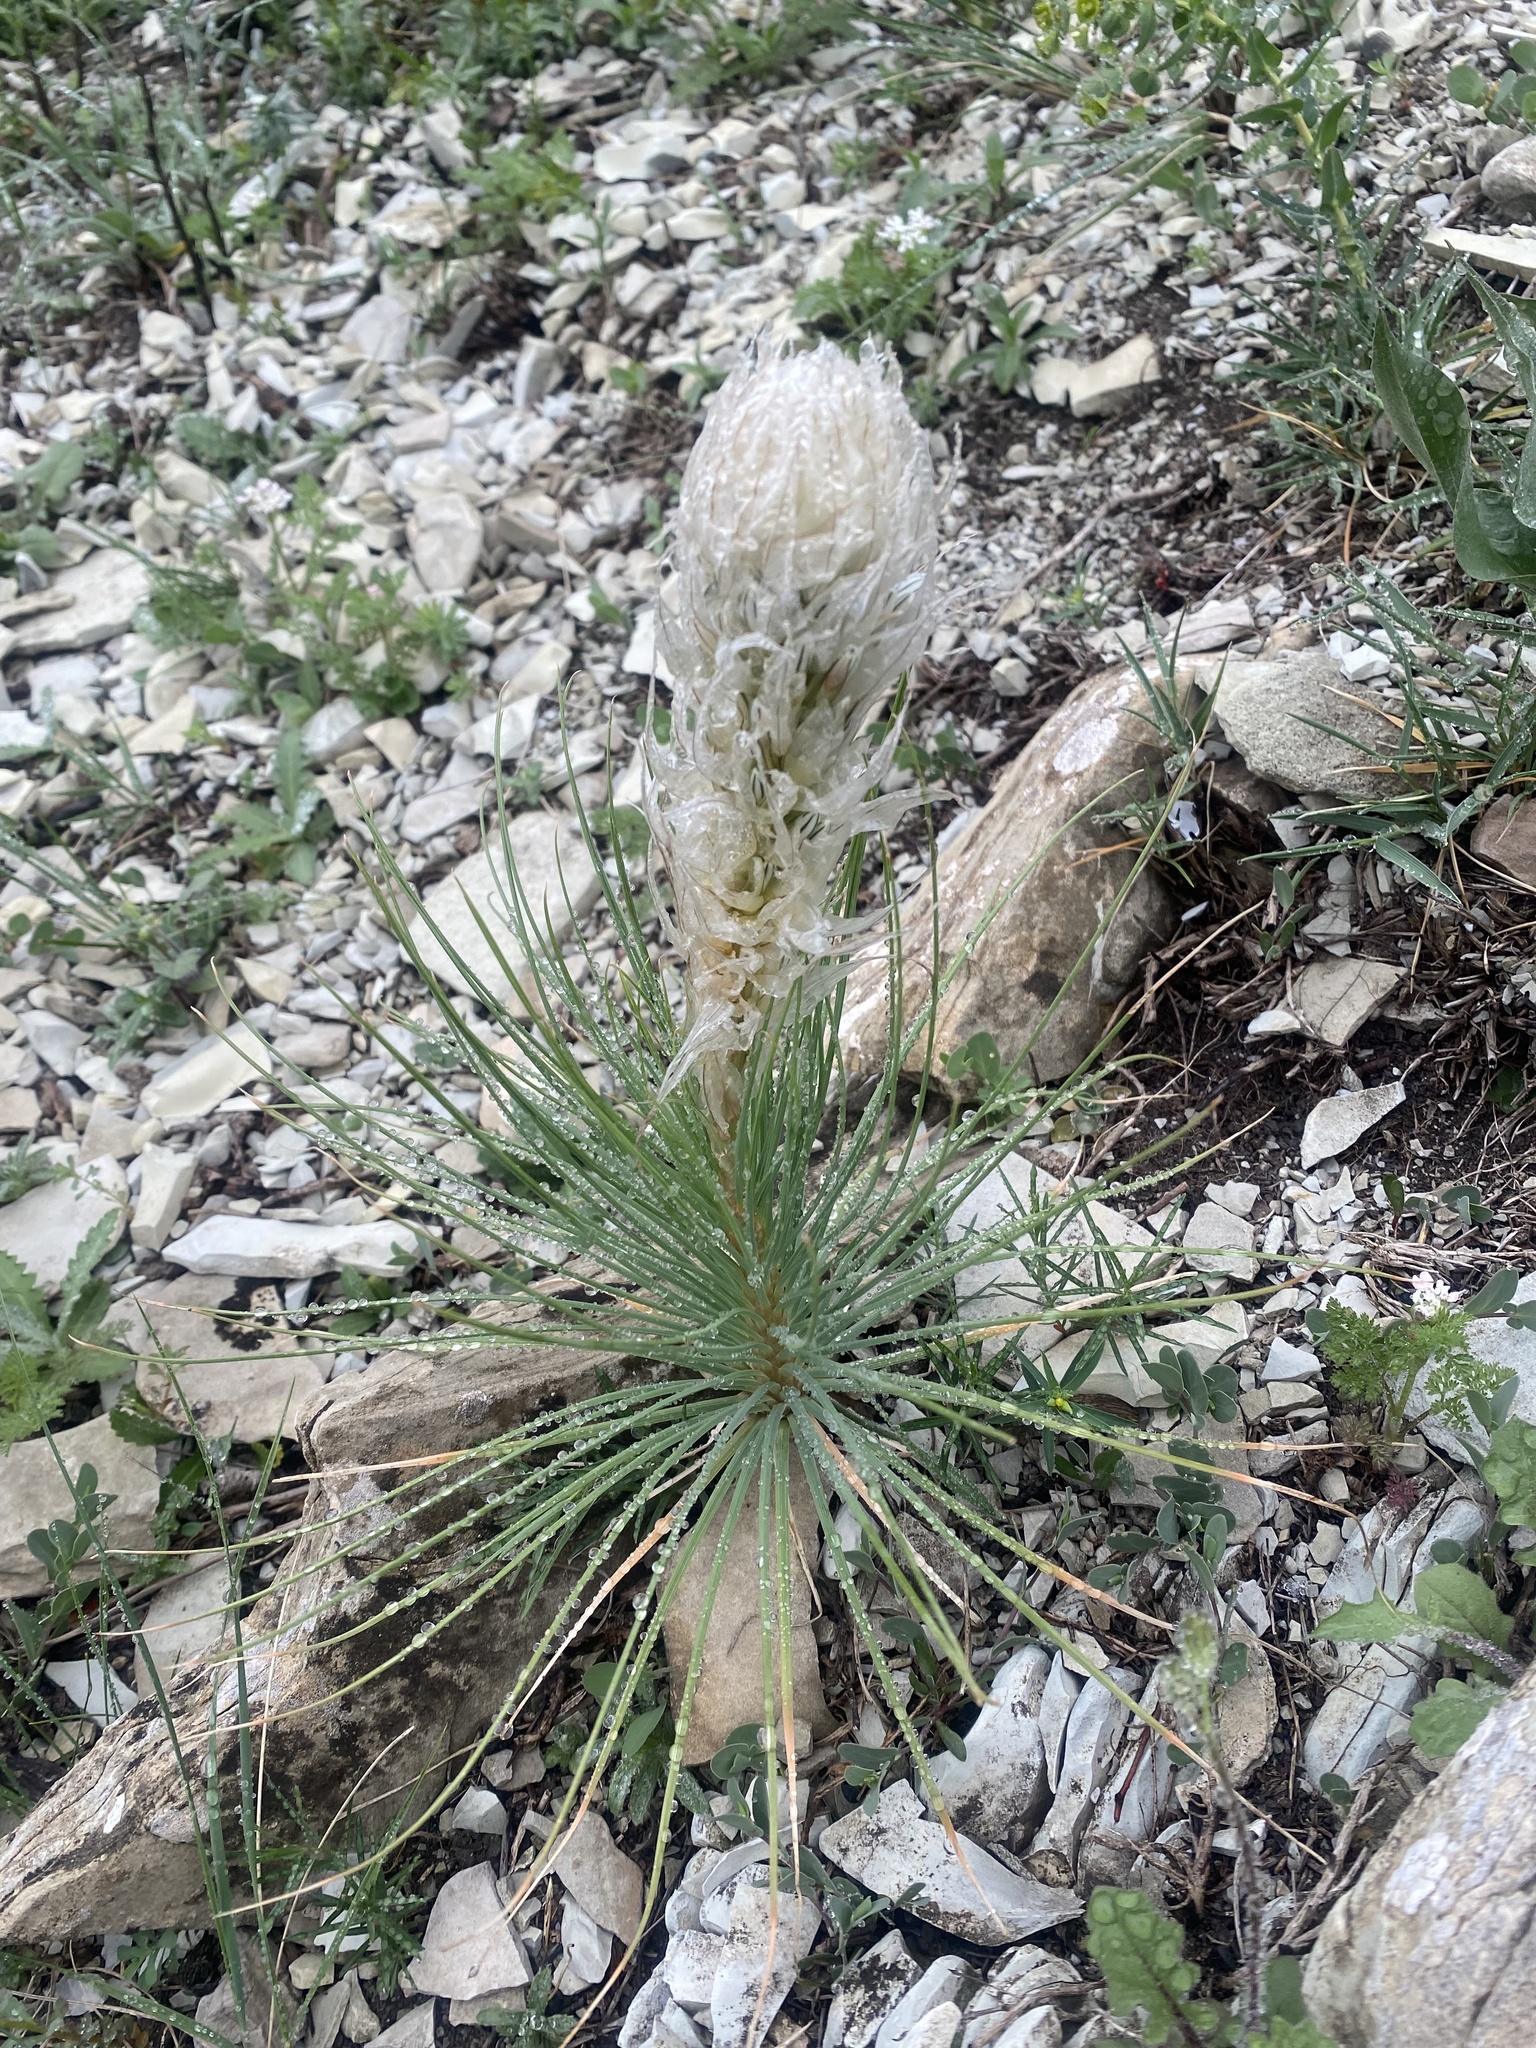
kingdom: Plantae
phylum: Tracheophyta
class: Liliopsida
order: Asparagales
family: Asphodelaceae
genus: Asphodeline
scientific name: Asphodeline taurica
